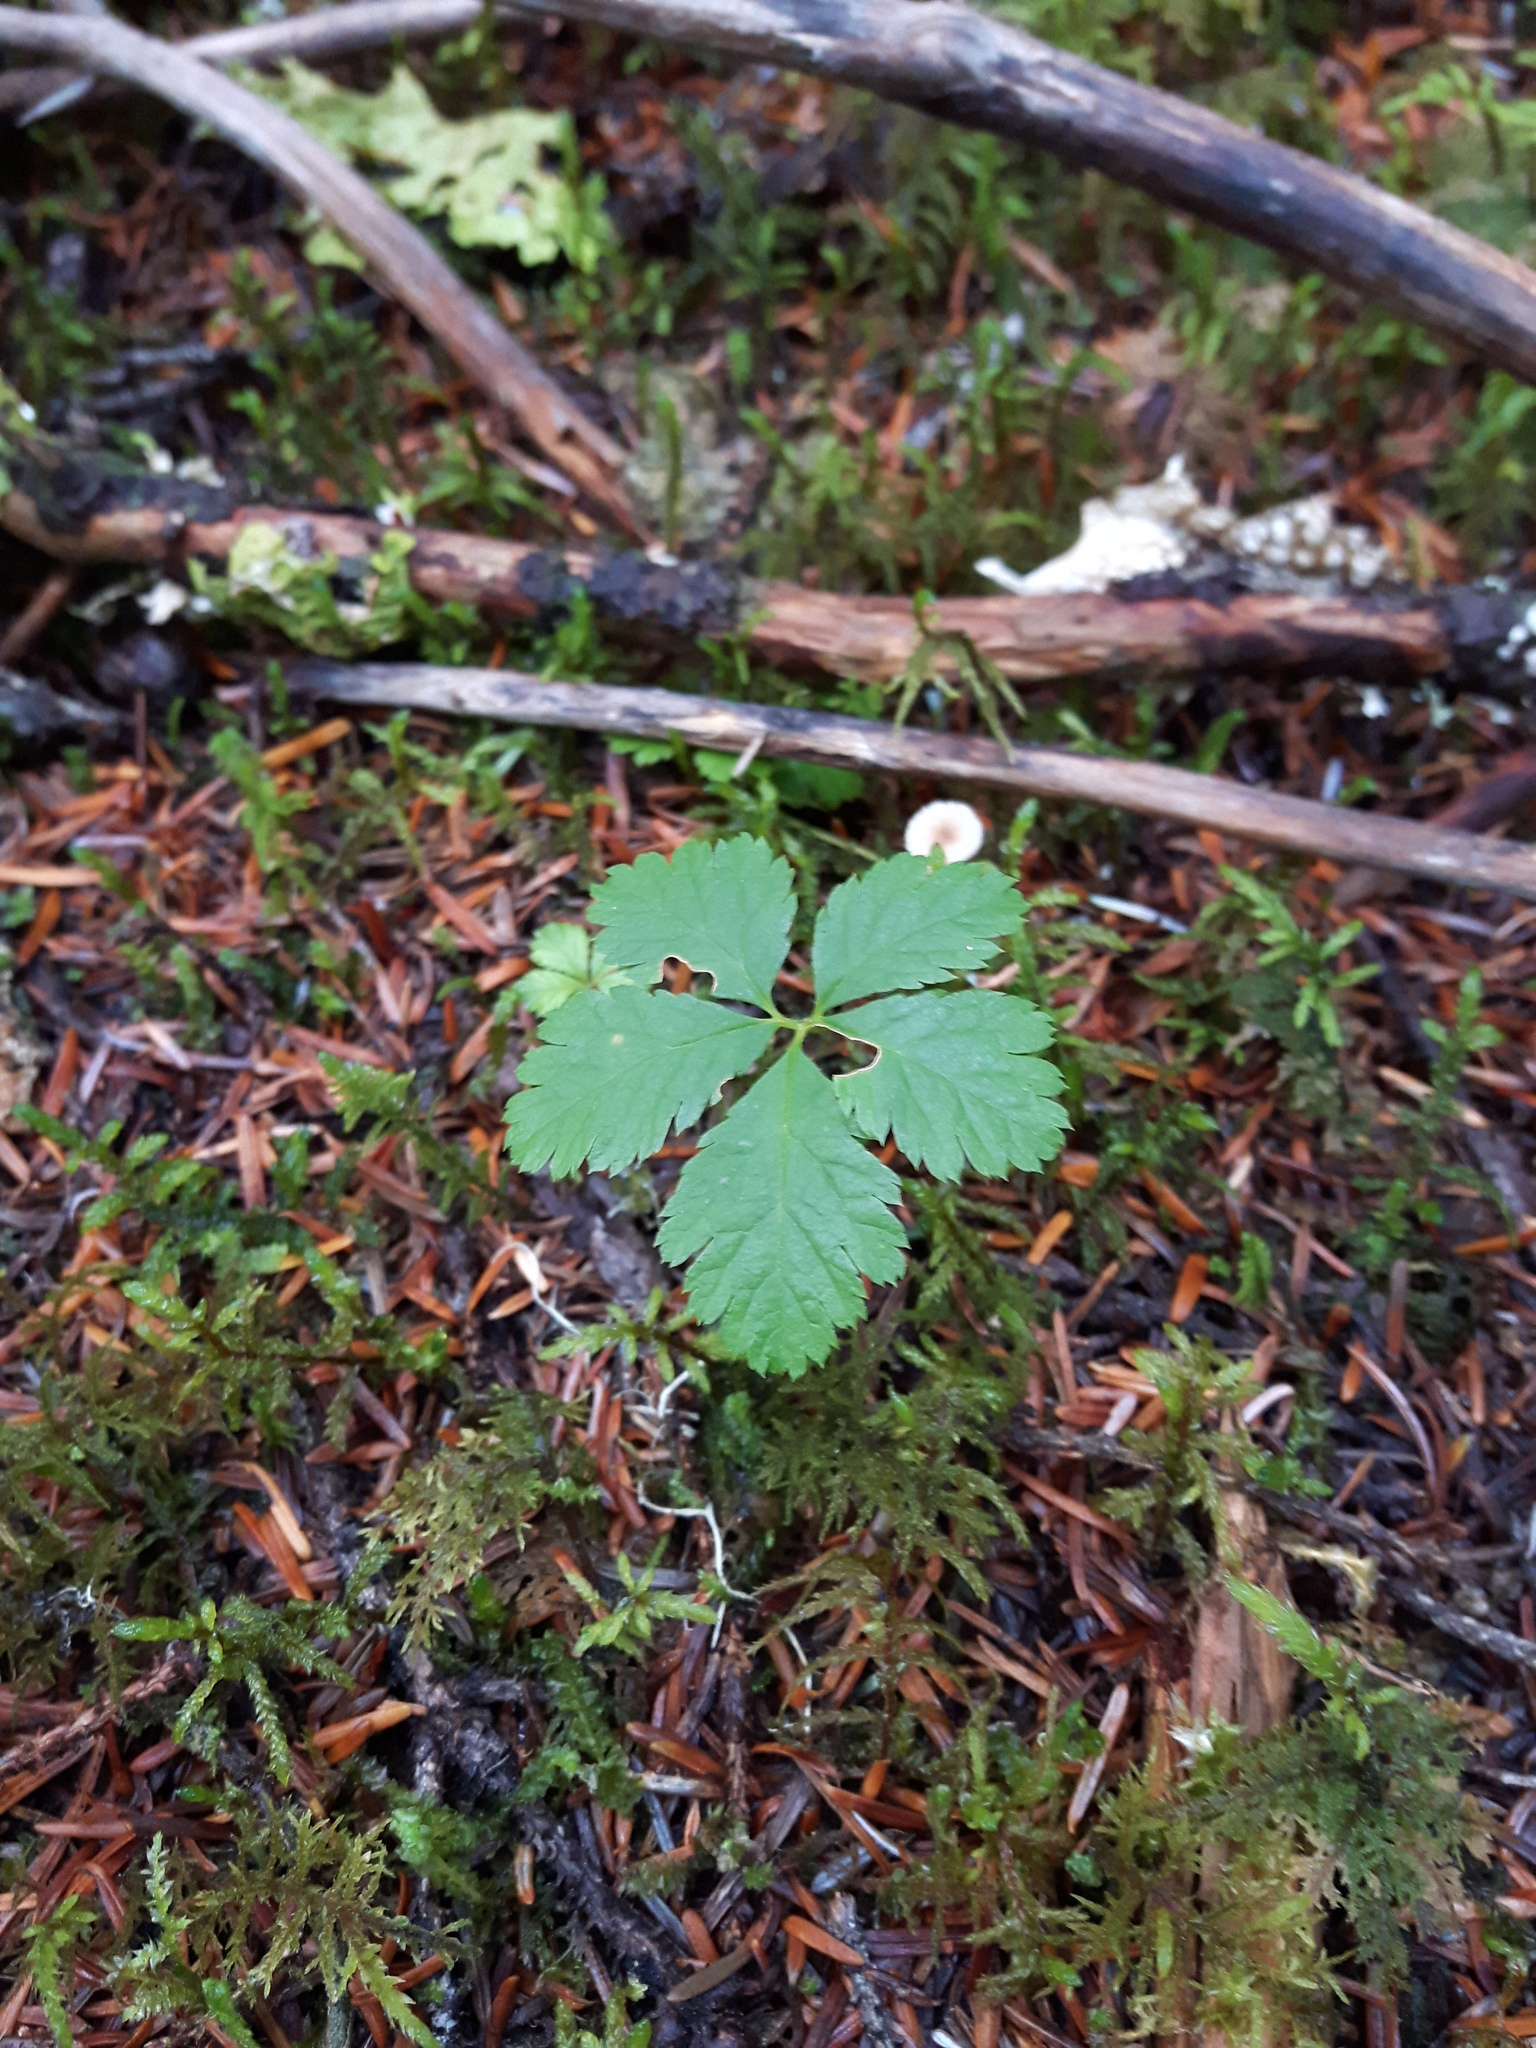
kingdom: Plantae
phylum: Tracheophyta
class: Magnoliopsida
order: Rosales
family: Rosaceae
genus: Rubus
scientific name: Rubus pedatus
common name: Creeping raspberry
